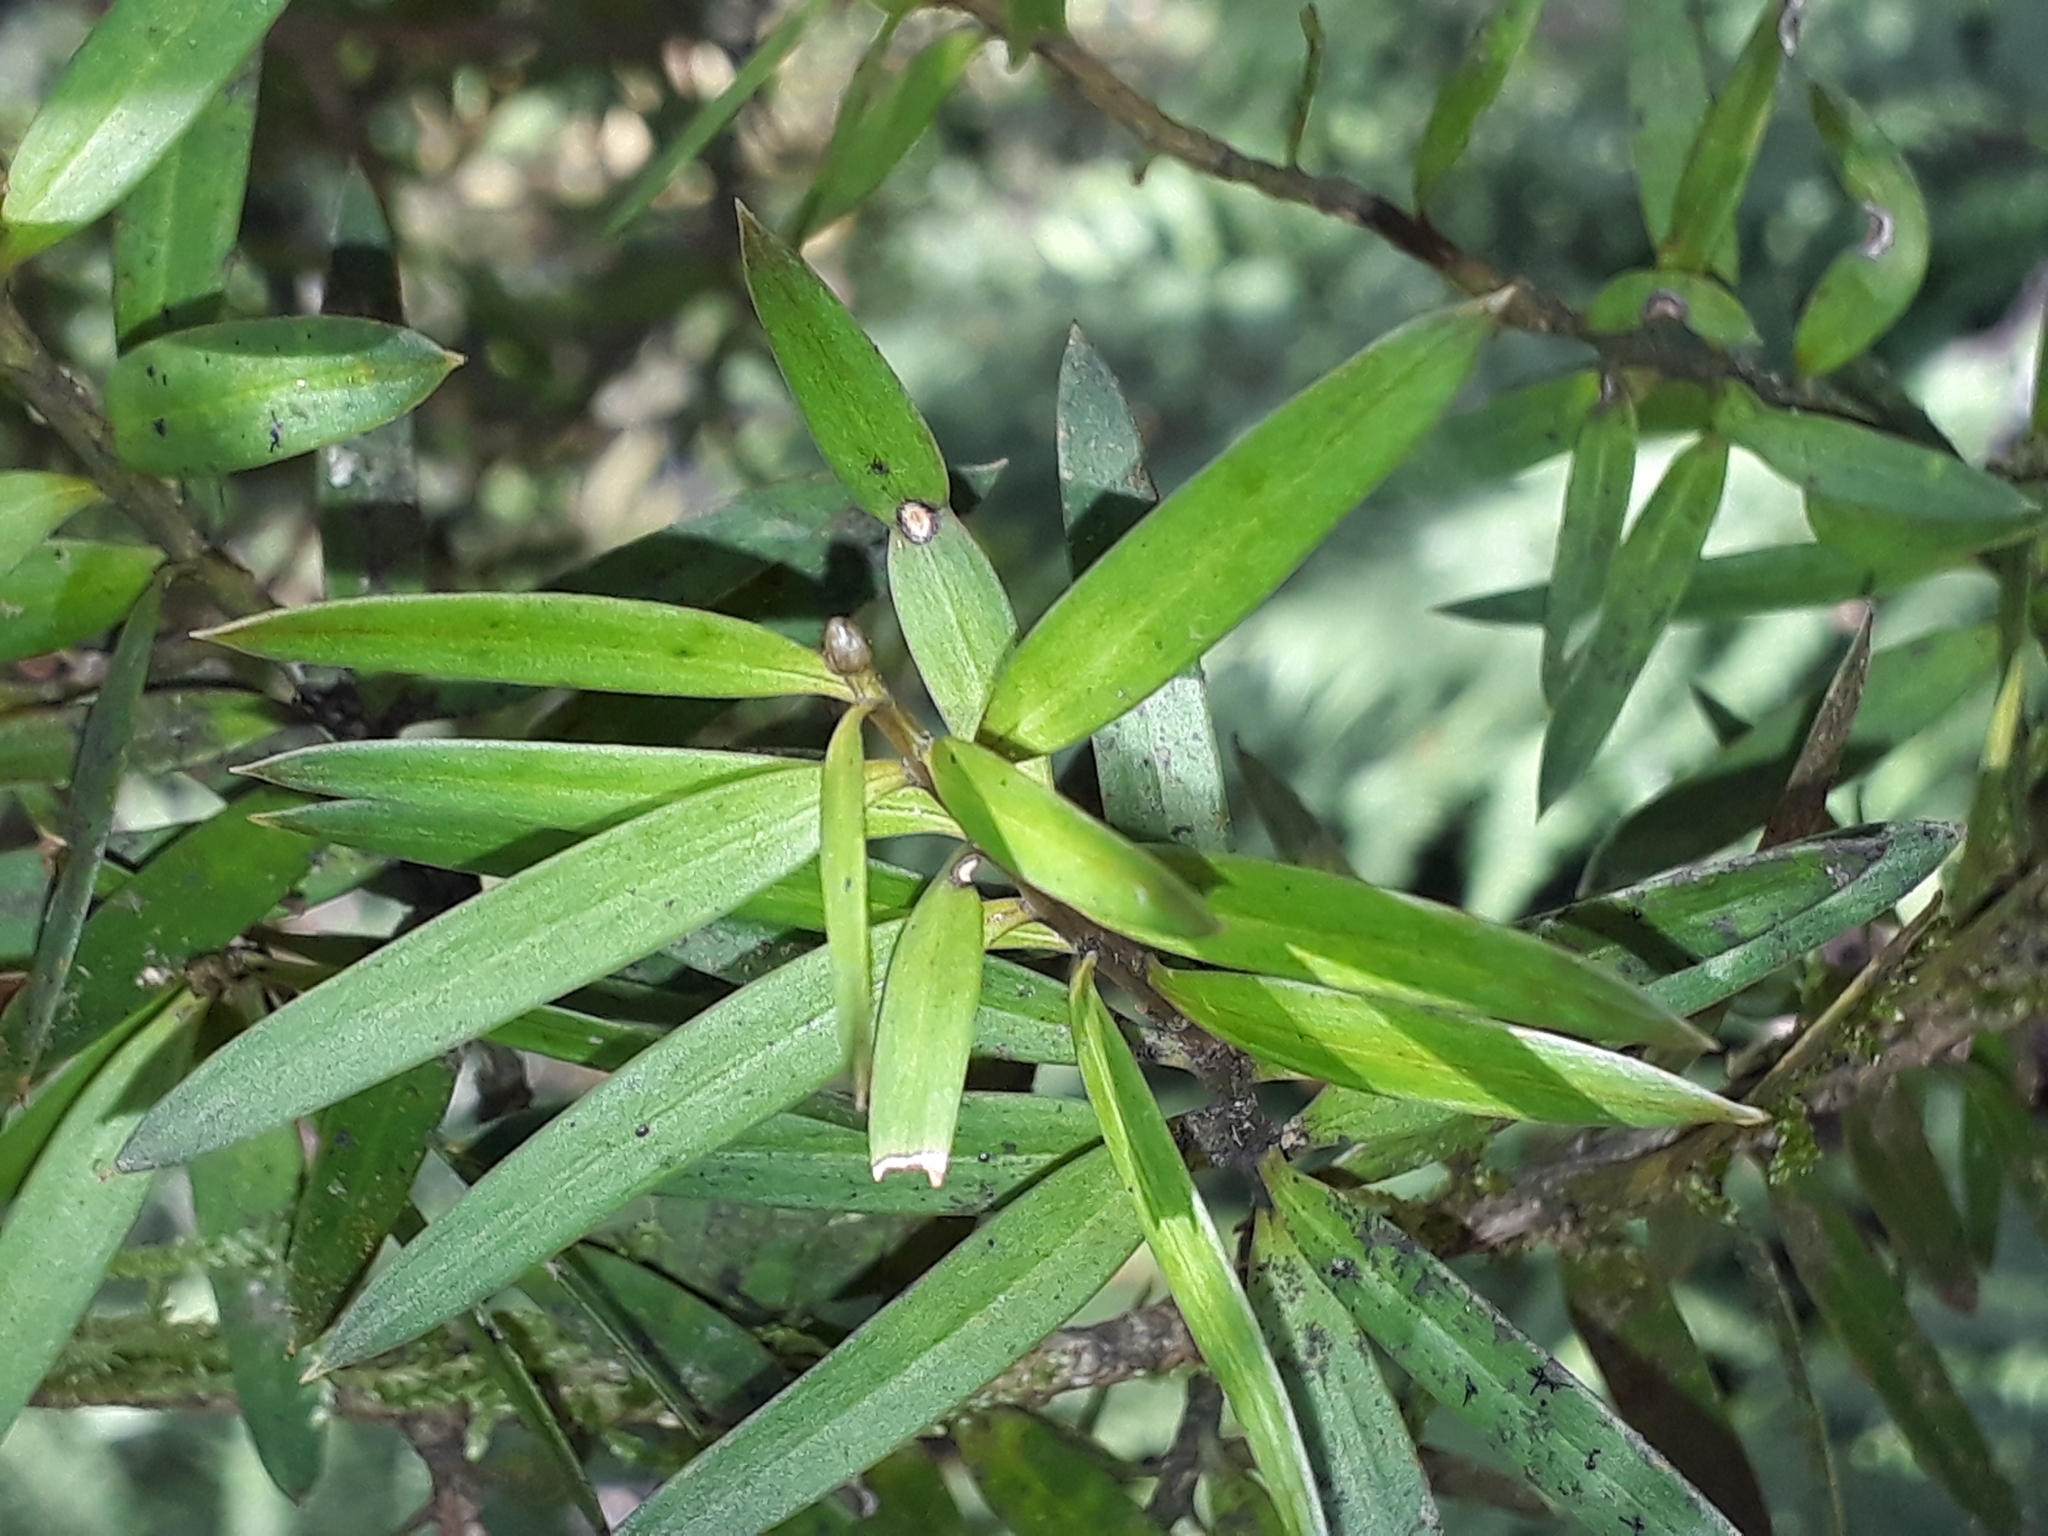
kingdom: Plantae
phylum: Tracheophyta
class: Pinopsida
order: Pinales
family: Podocarpaceae
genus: Podocarpus
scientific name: Podocarpus laetus
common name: Hall's totara
